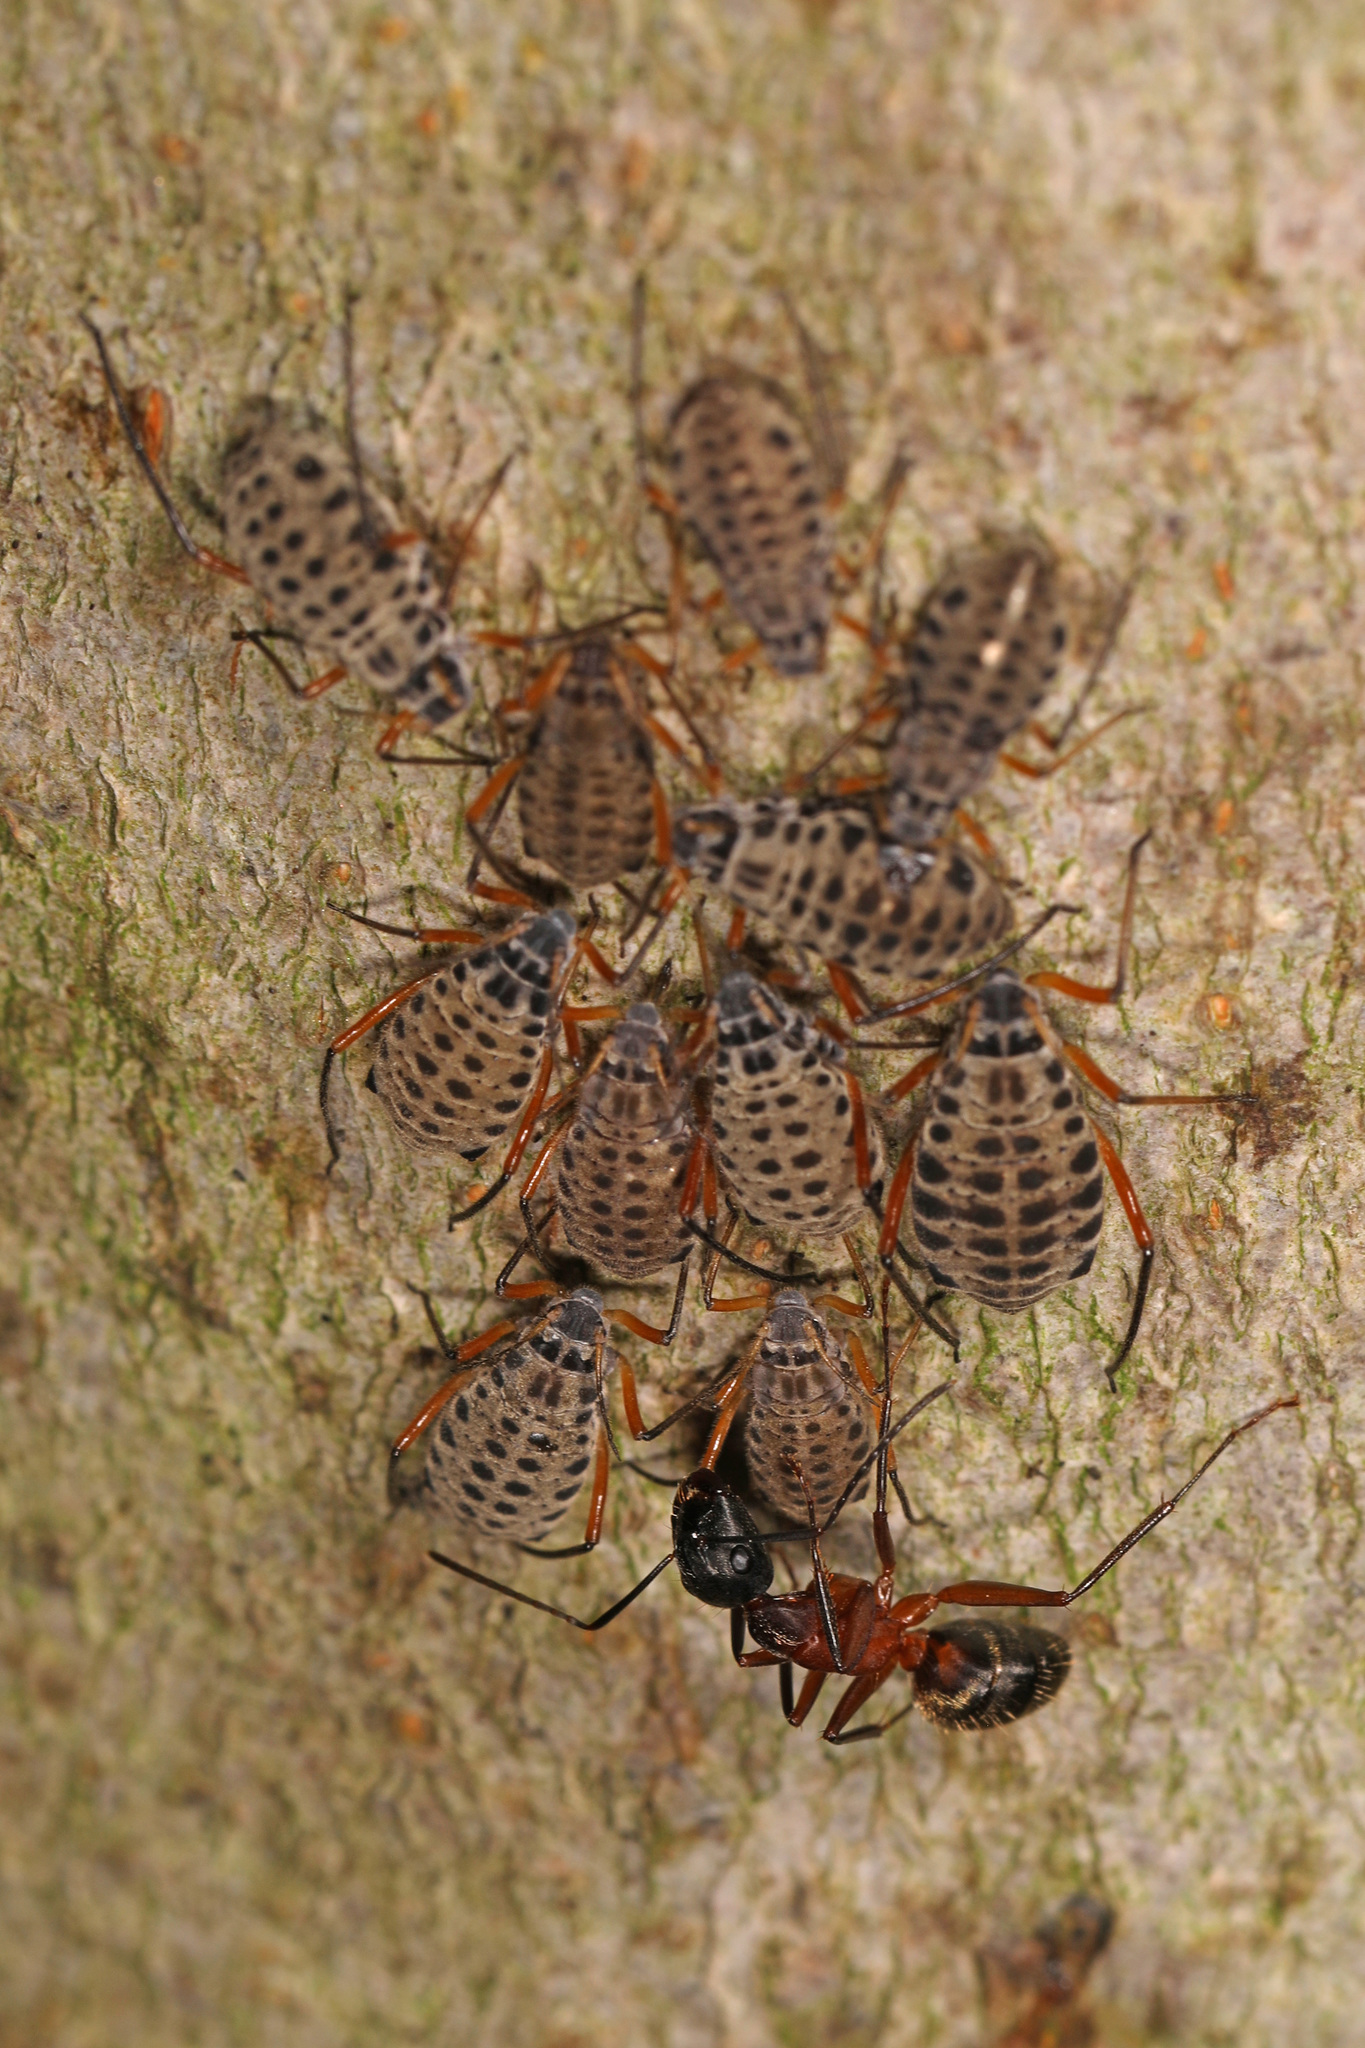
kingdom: Animalia
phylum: Arthropoda
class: Insecta
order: Hemiptera
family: Aphididae
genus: Longistigma
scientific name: Longistigma caryae
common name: Giant bark aphid
